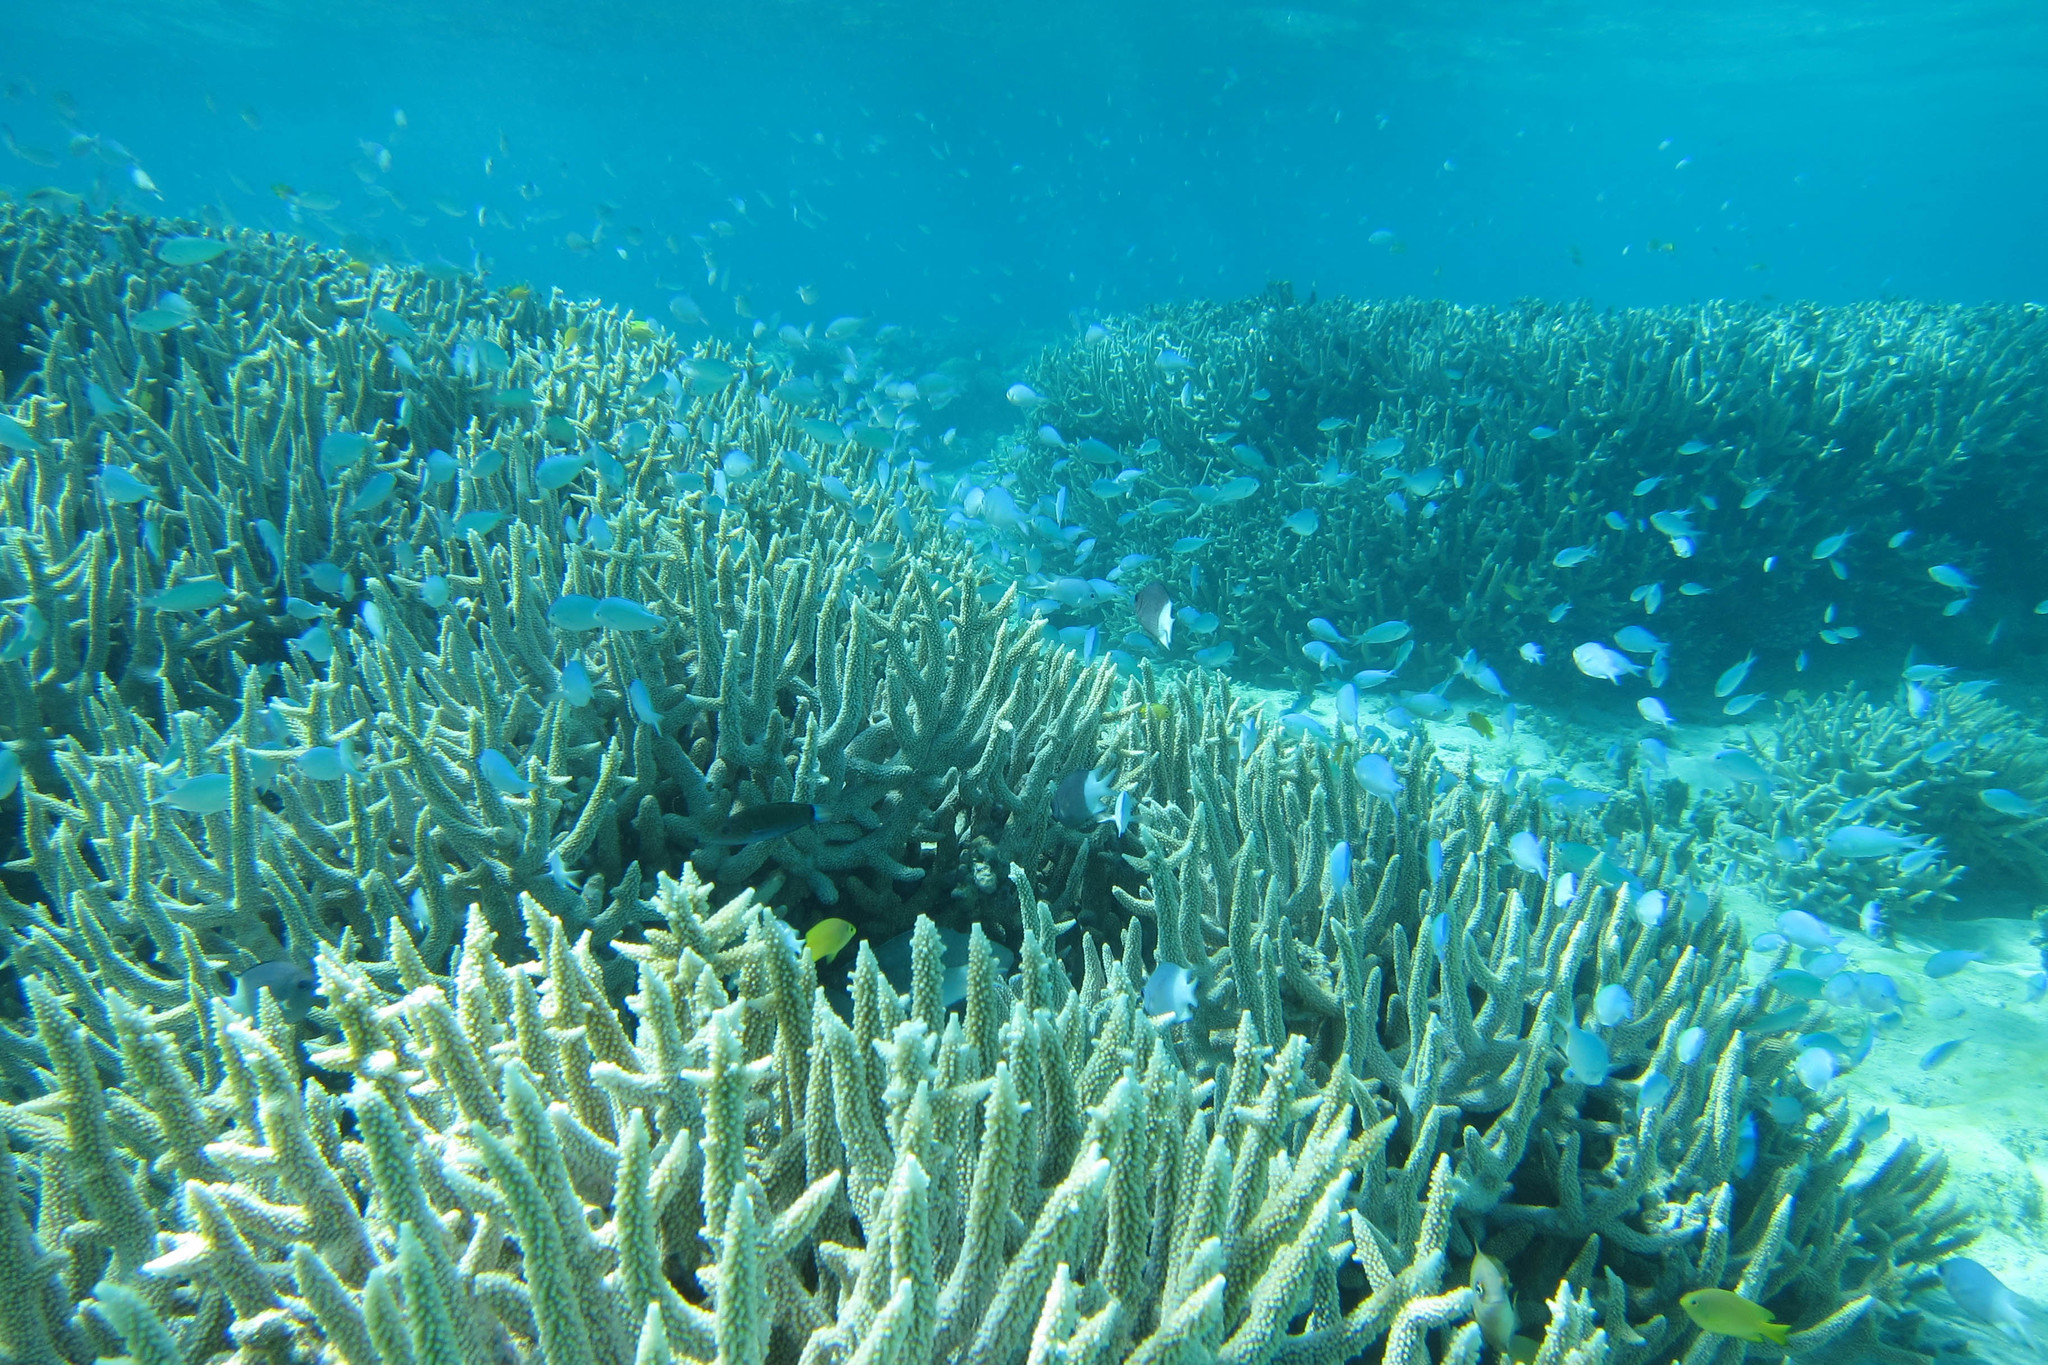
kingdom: Animalia
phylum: Chordata
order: Perciformes
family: Labridae
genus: Thalassoma
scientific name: Thalassoma lunare
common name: Blue wrasse
